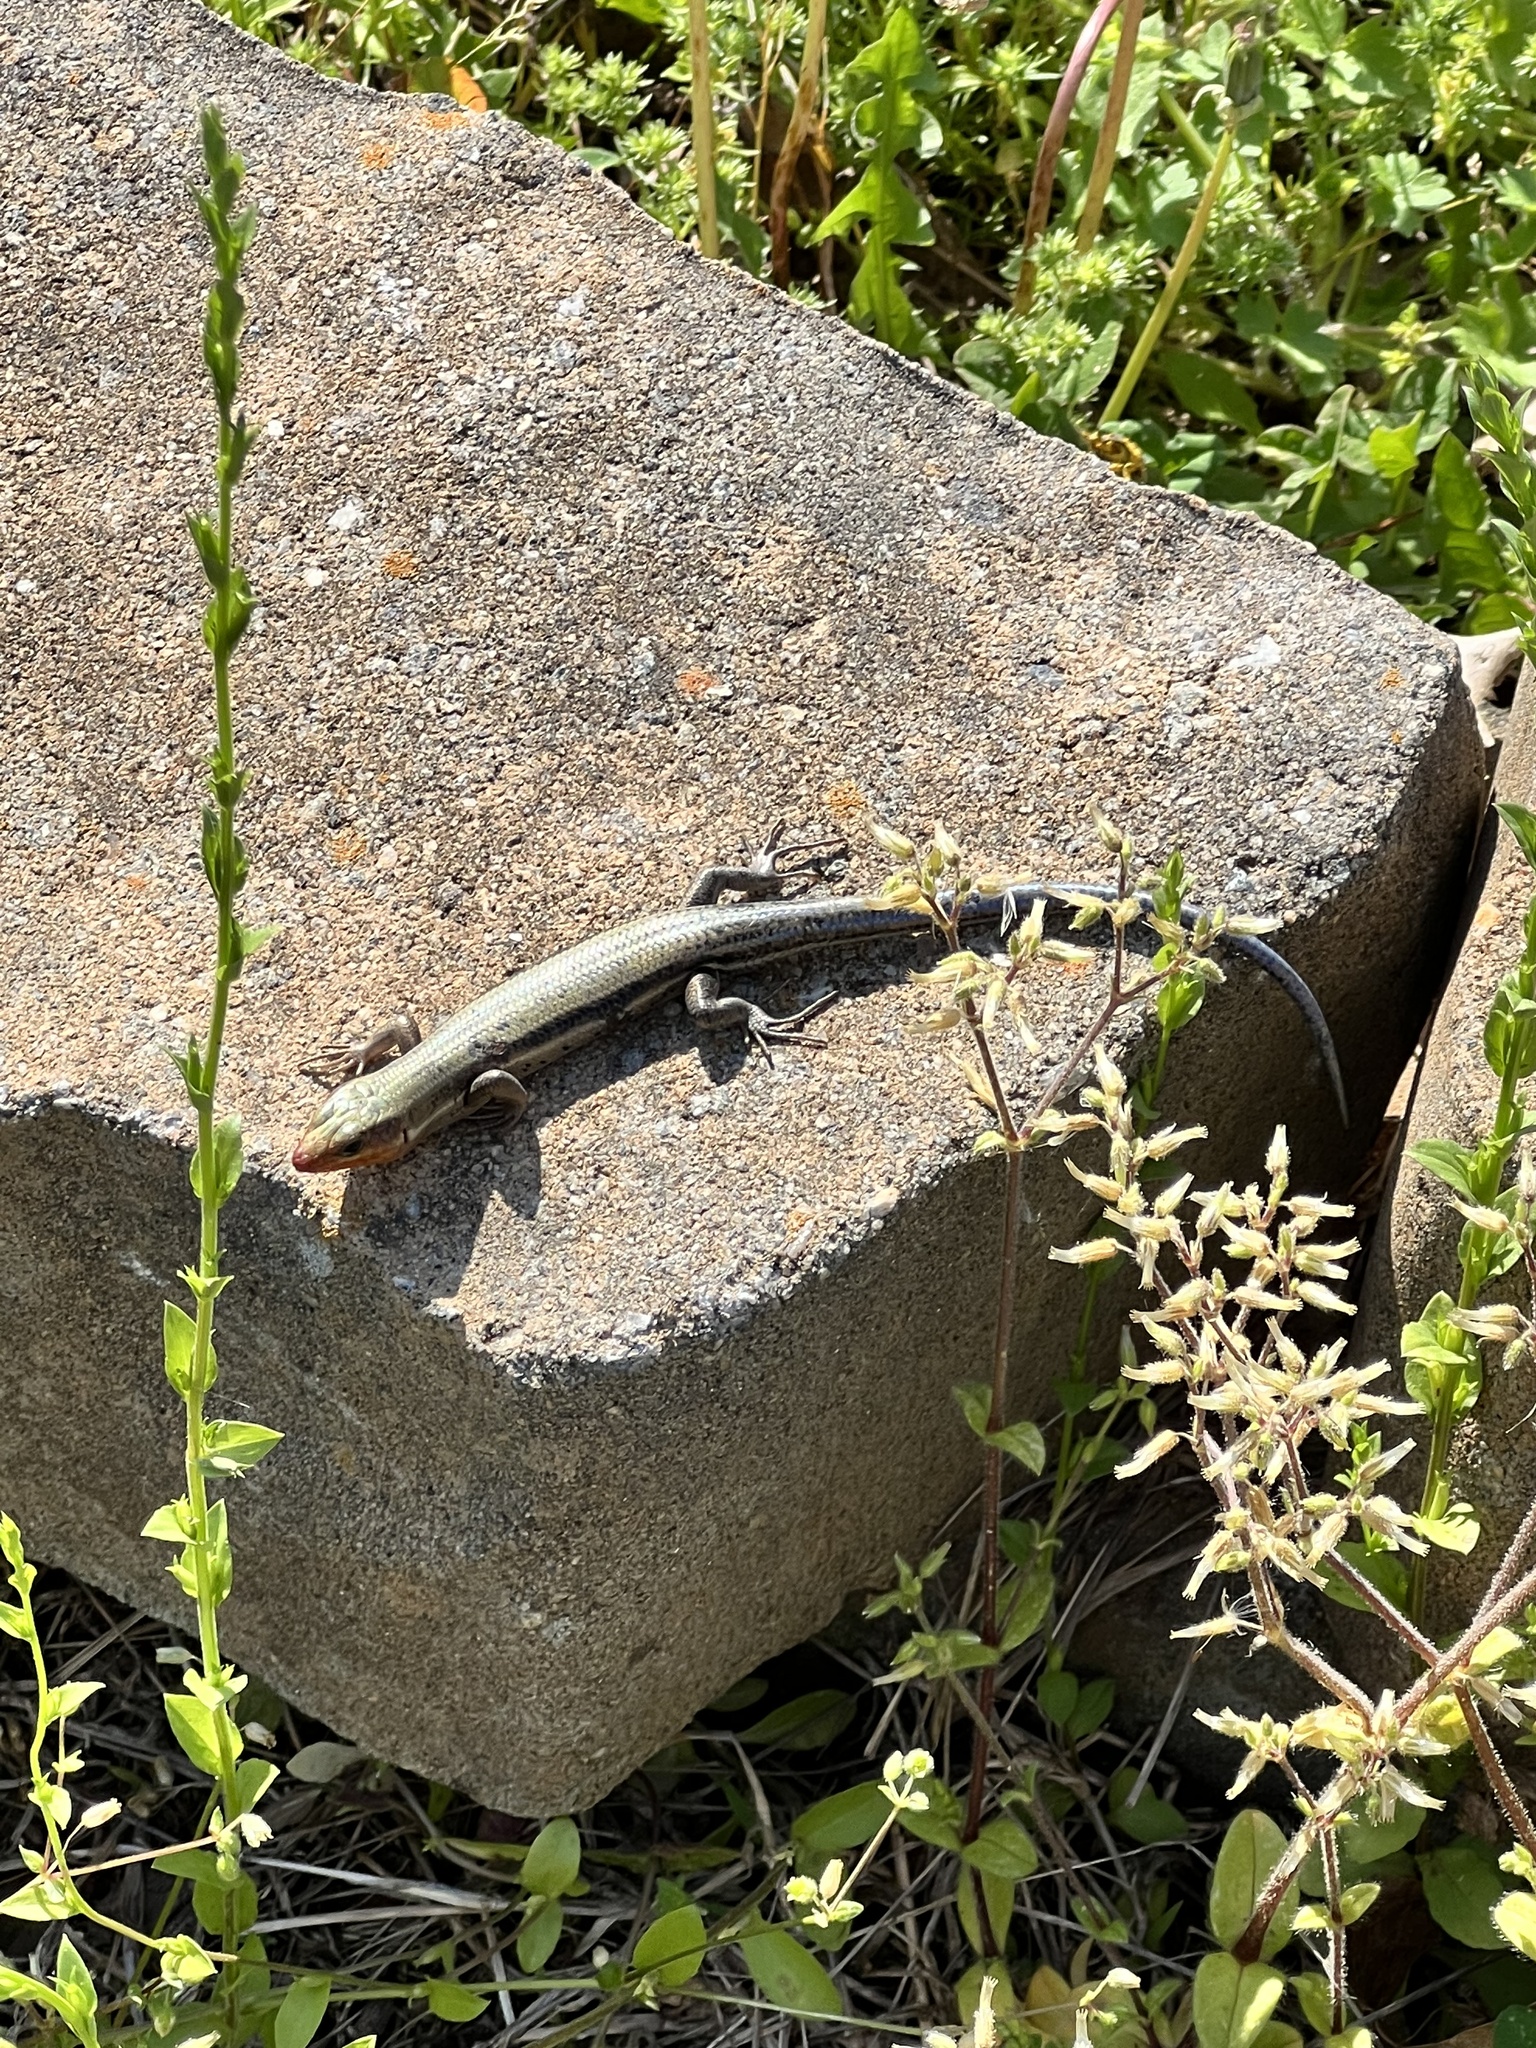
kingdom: Animalia
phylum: Chordata
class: Squamata
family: Scincidae
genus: Plestiodon
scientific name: Plestiodon fasciatus
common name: Five-lined skink
